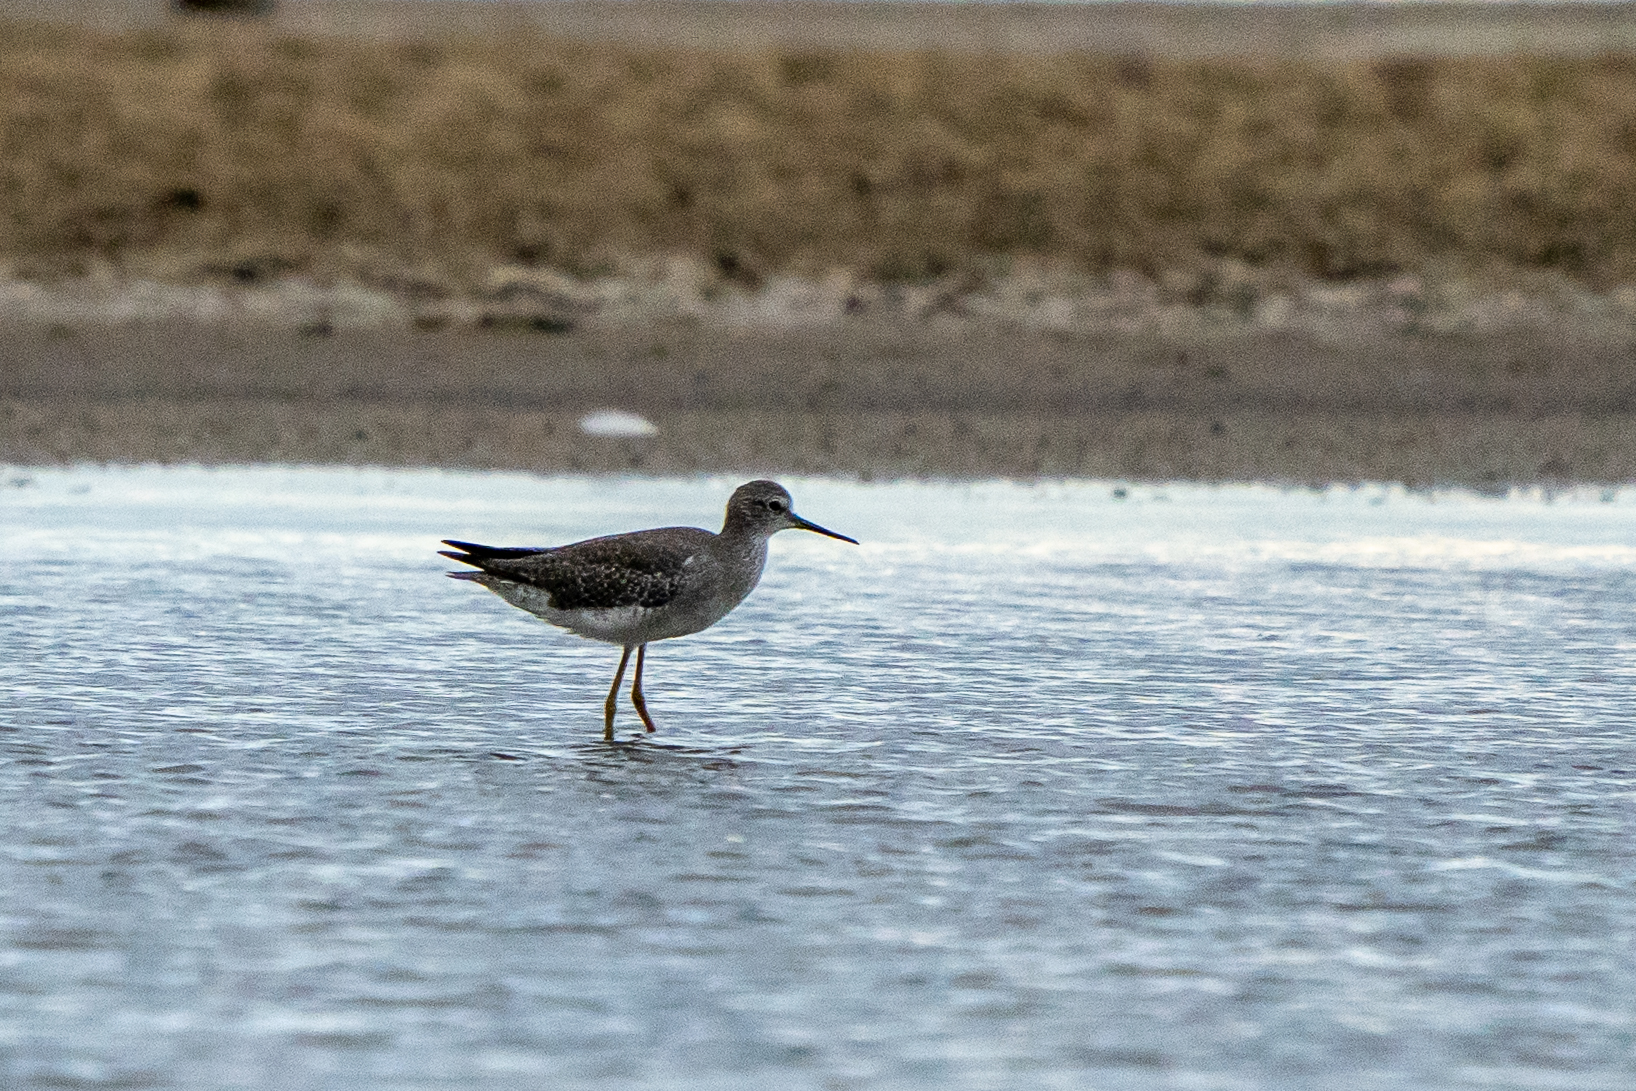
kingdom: Animalia
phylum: Chordata
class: Aves
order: Charadriiformes
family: Scolopacidae
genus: Tringa
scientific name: Tringa flavipes
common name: Lesser yellowlegs
